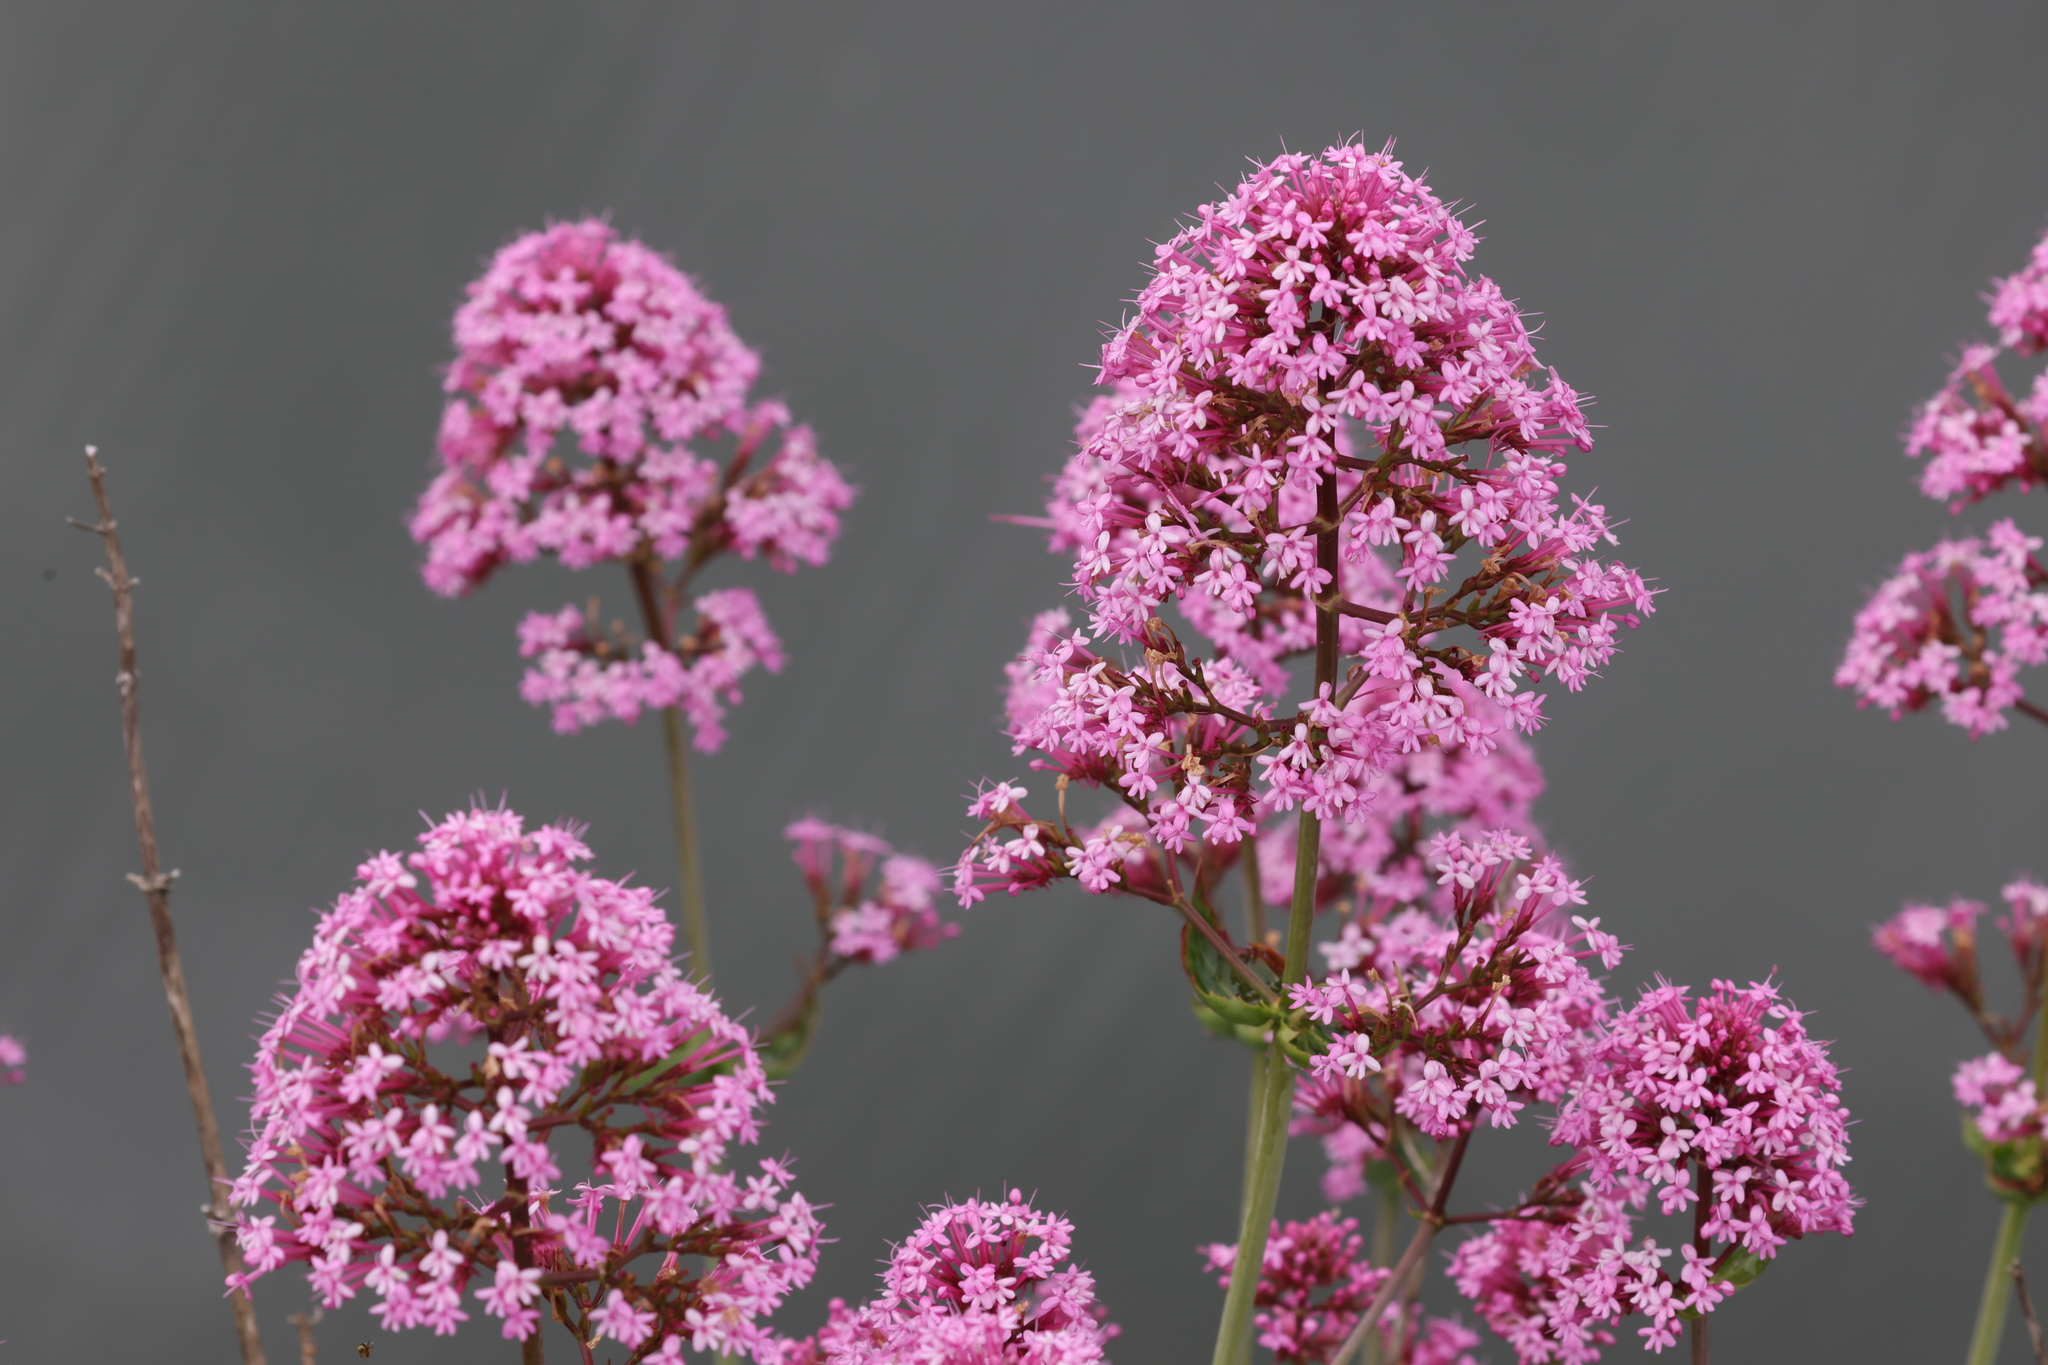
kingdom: Plantae
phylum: Tracheophyta
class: Magnoliopsida
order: Dipsacales
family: Caprifoliaceae
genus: Centranthus
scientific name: Centranthus ruber
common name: Red valerian
